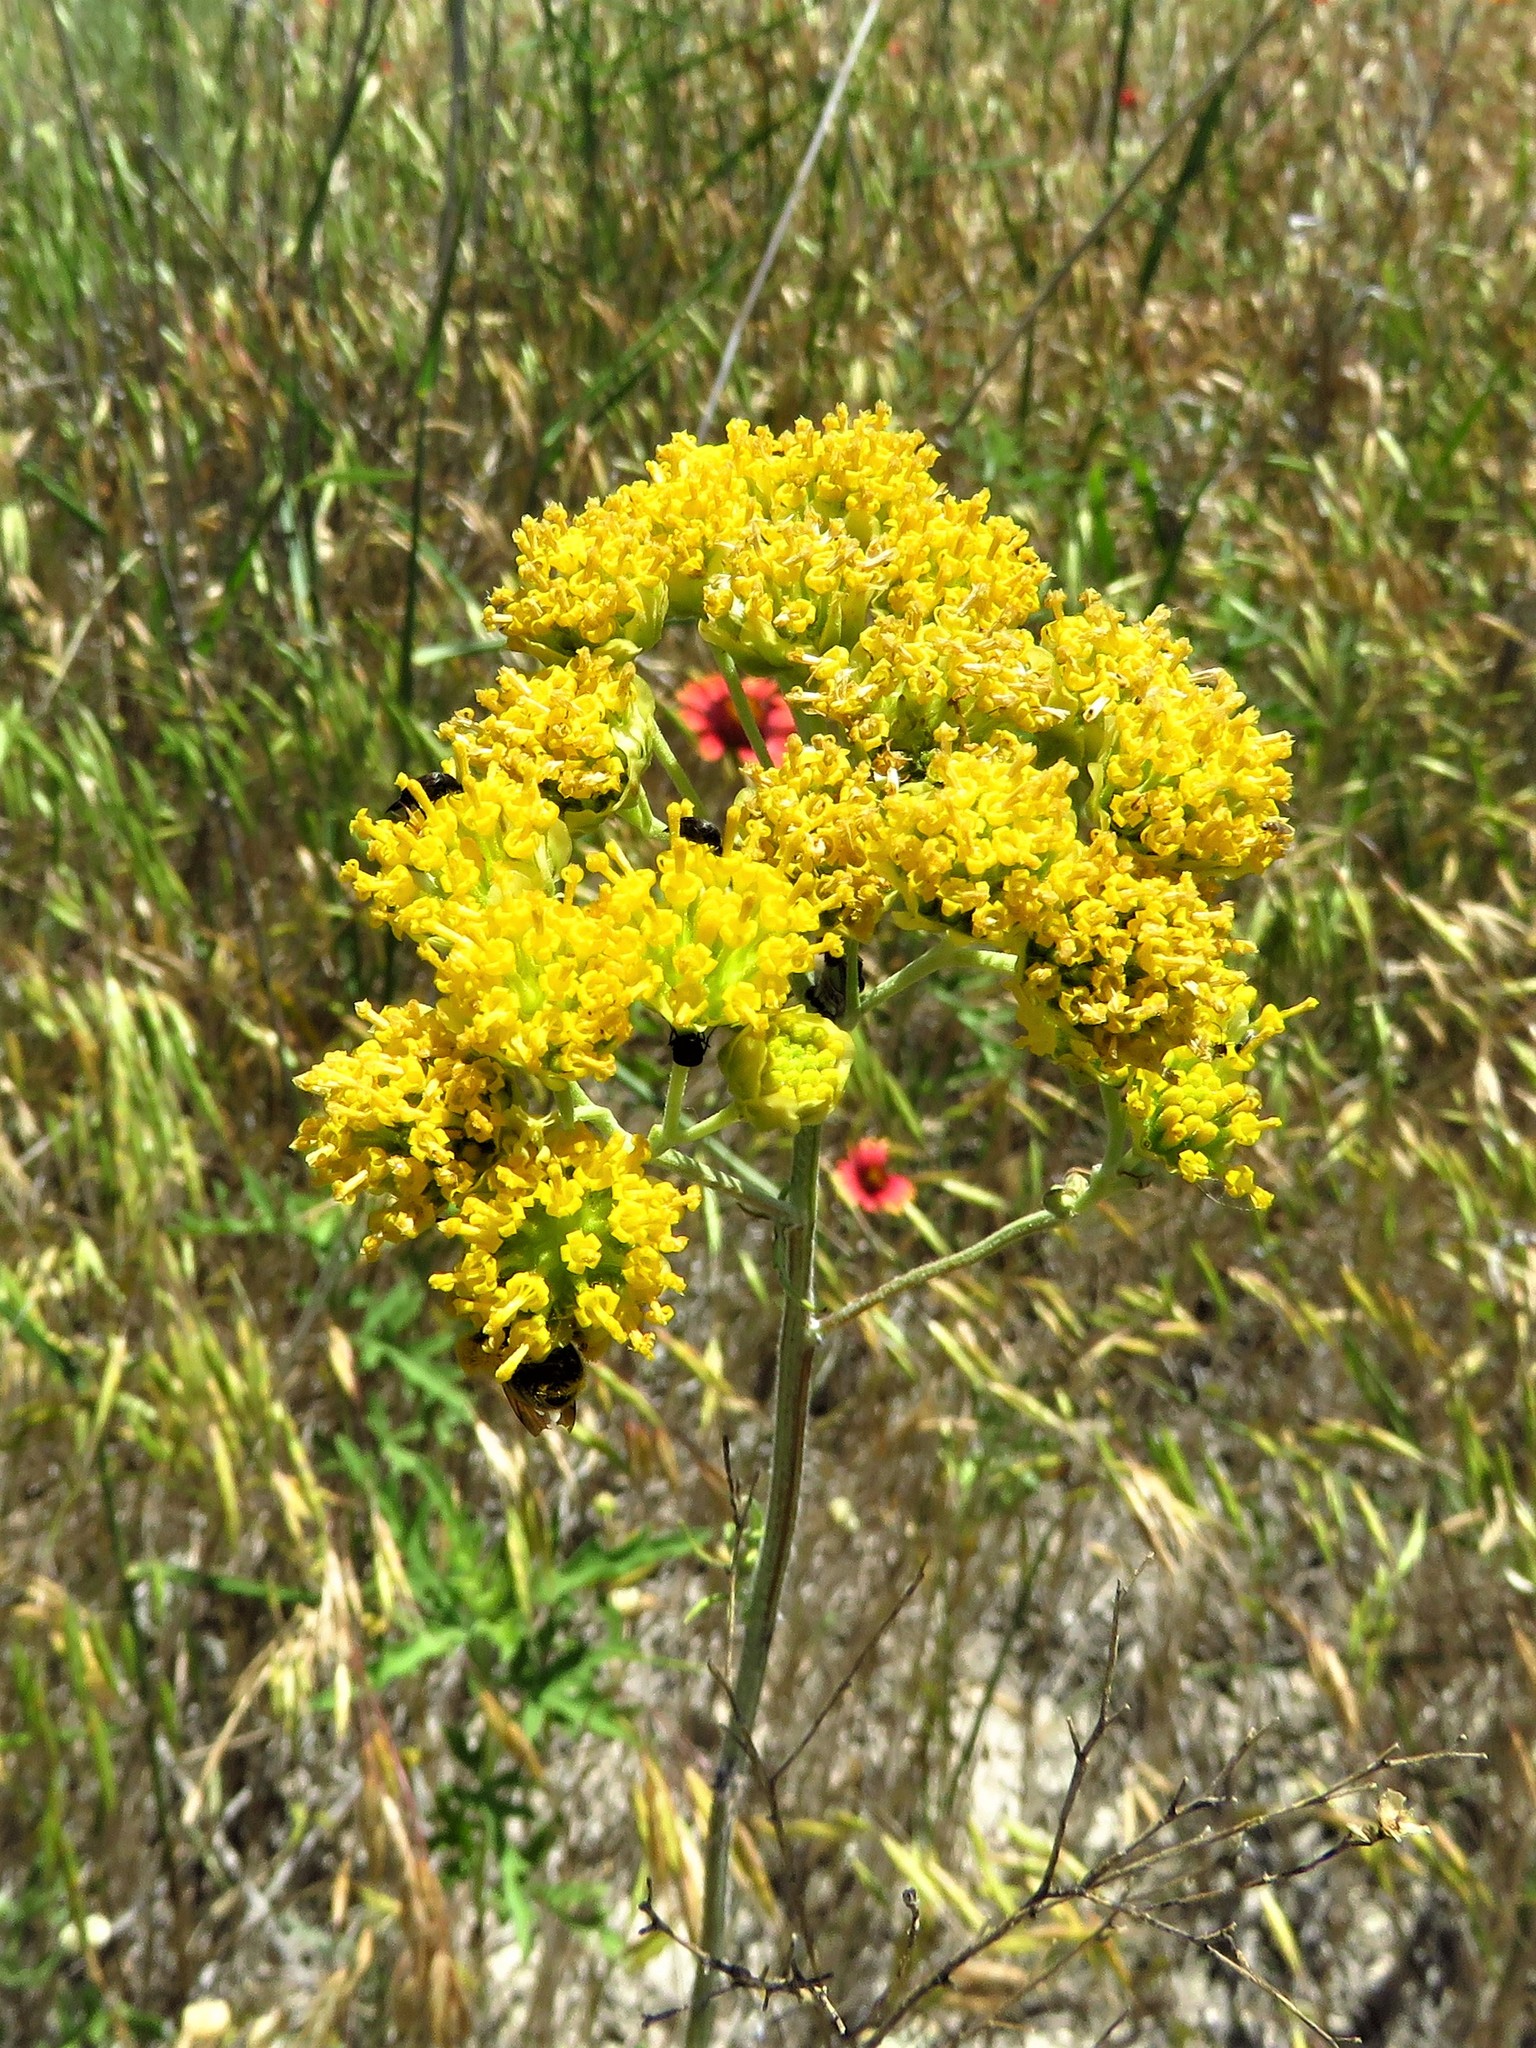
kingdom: Plantae
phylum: Tracheophyta
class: Magnoliopsida
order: Asterales
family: Asteraceae
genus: Hymenopappus
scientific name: Hymenopappus flavescens
